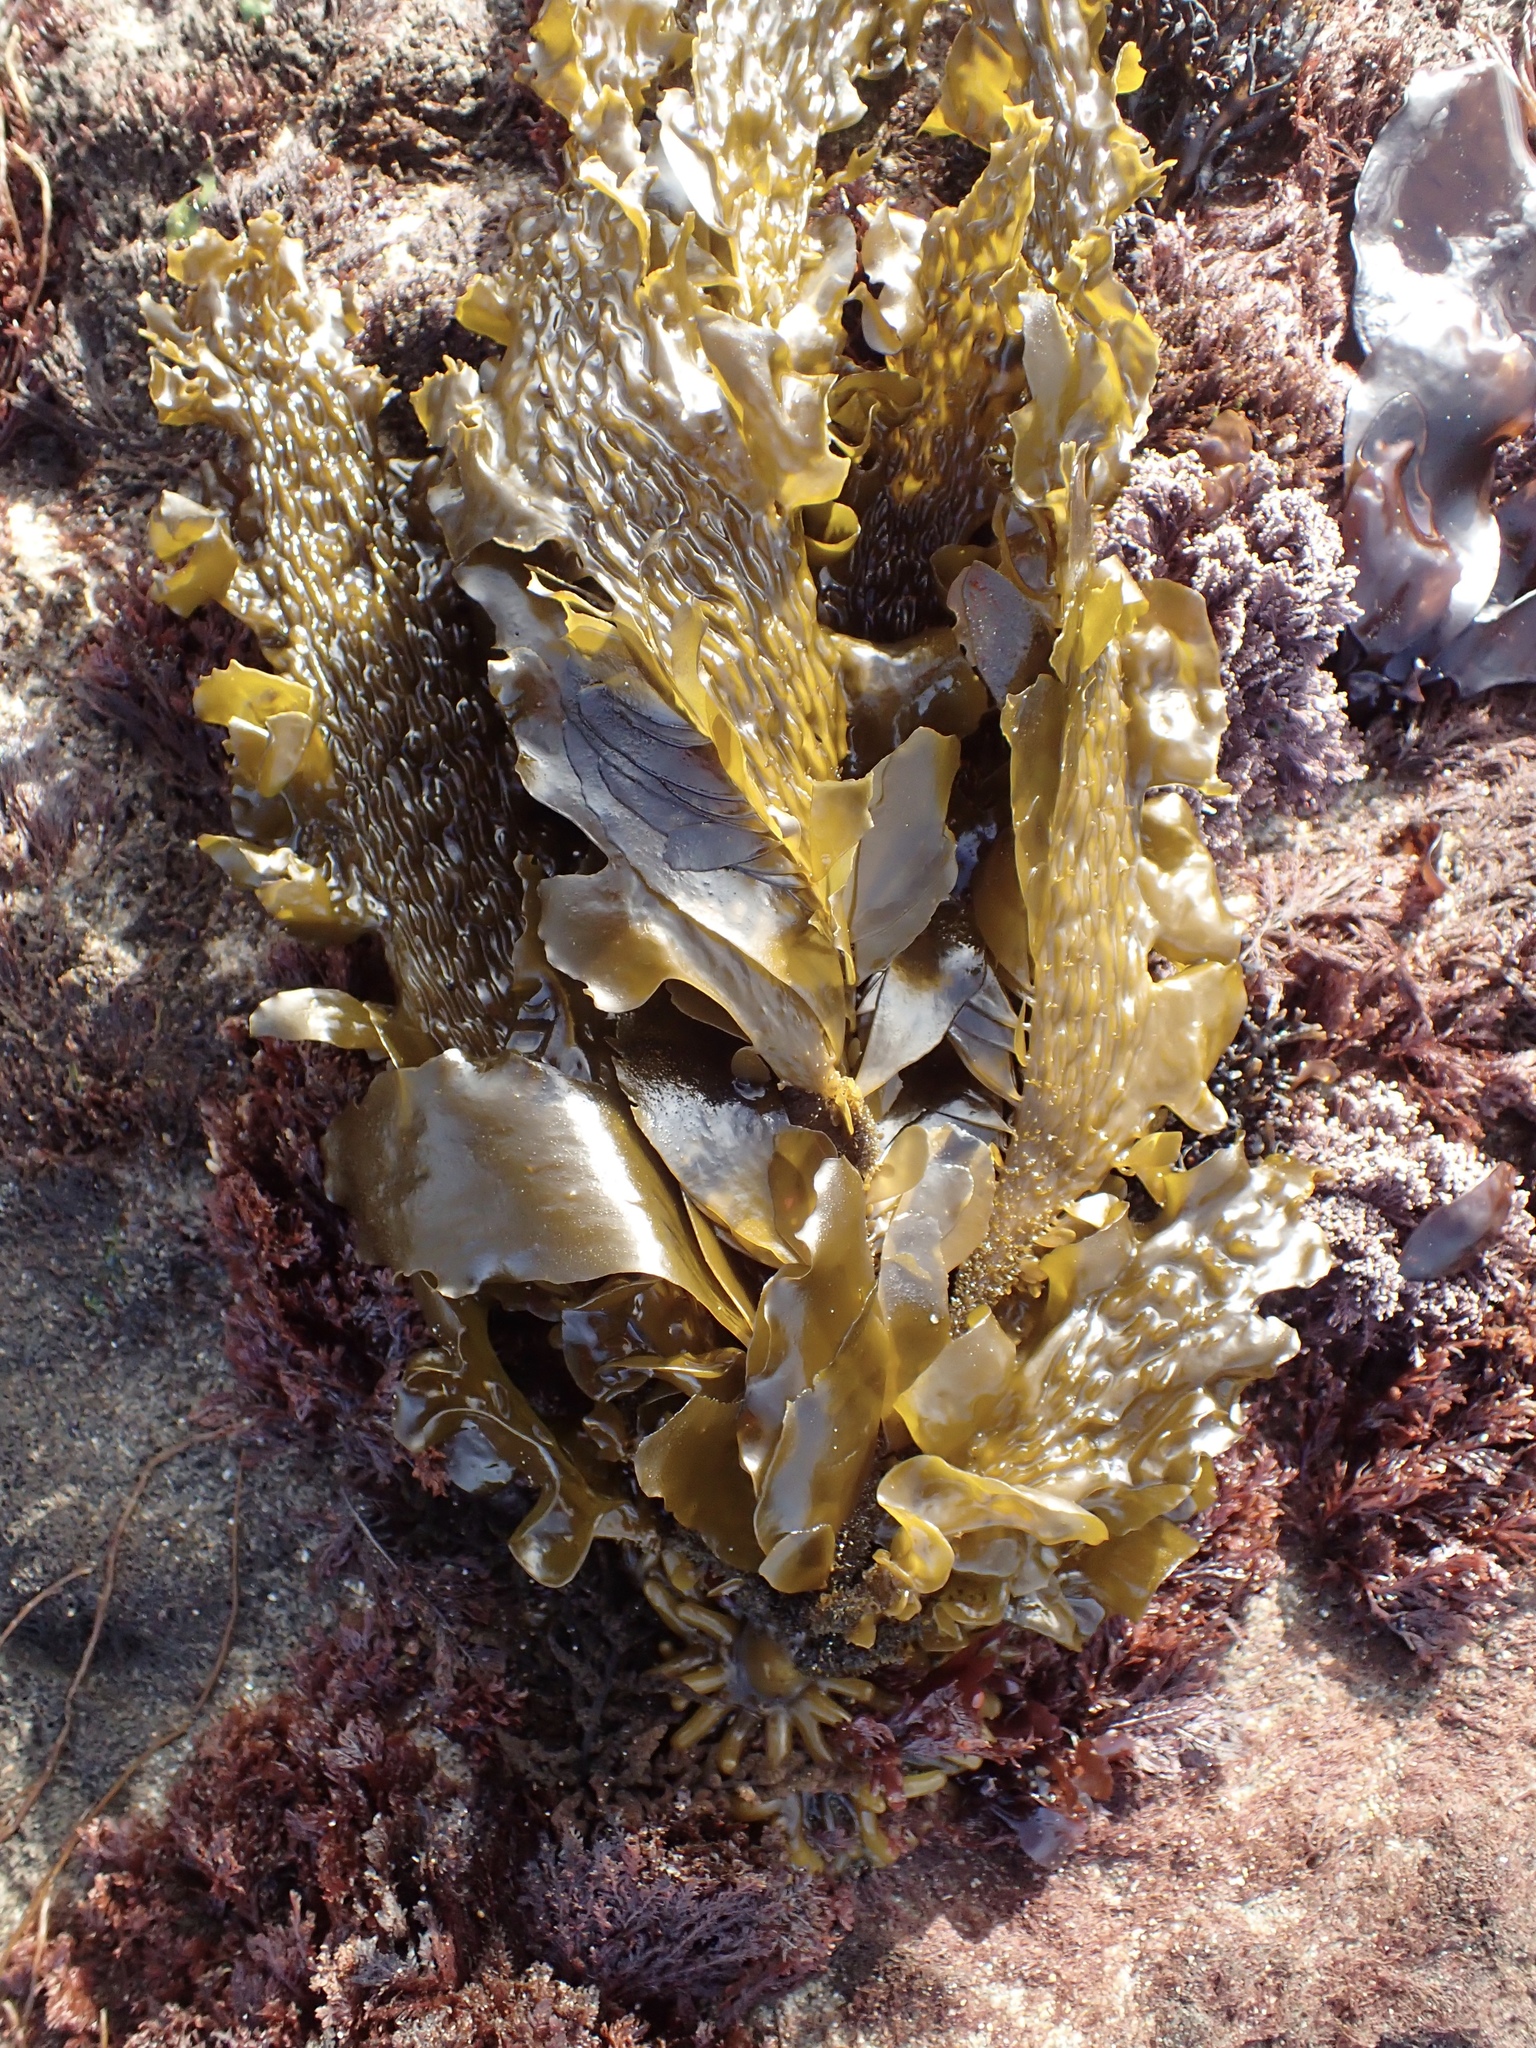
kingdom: Chromista
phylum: Ochrophyta
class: Phaeophyceae
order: Laminariales
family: Lessoniaceae
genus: Egregia
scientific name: Egregia menziesii
